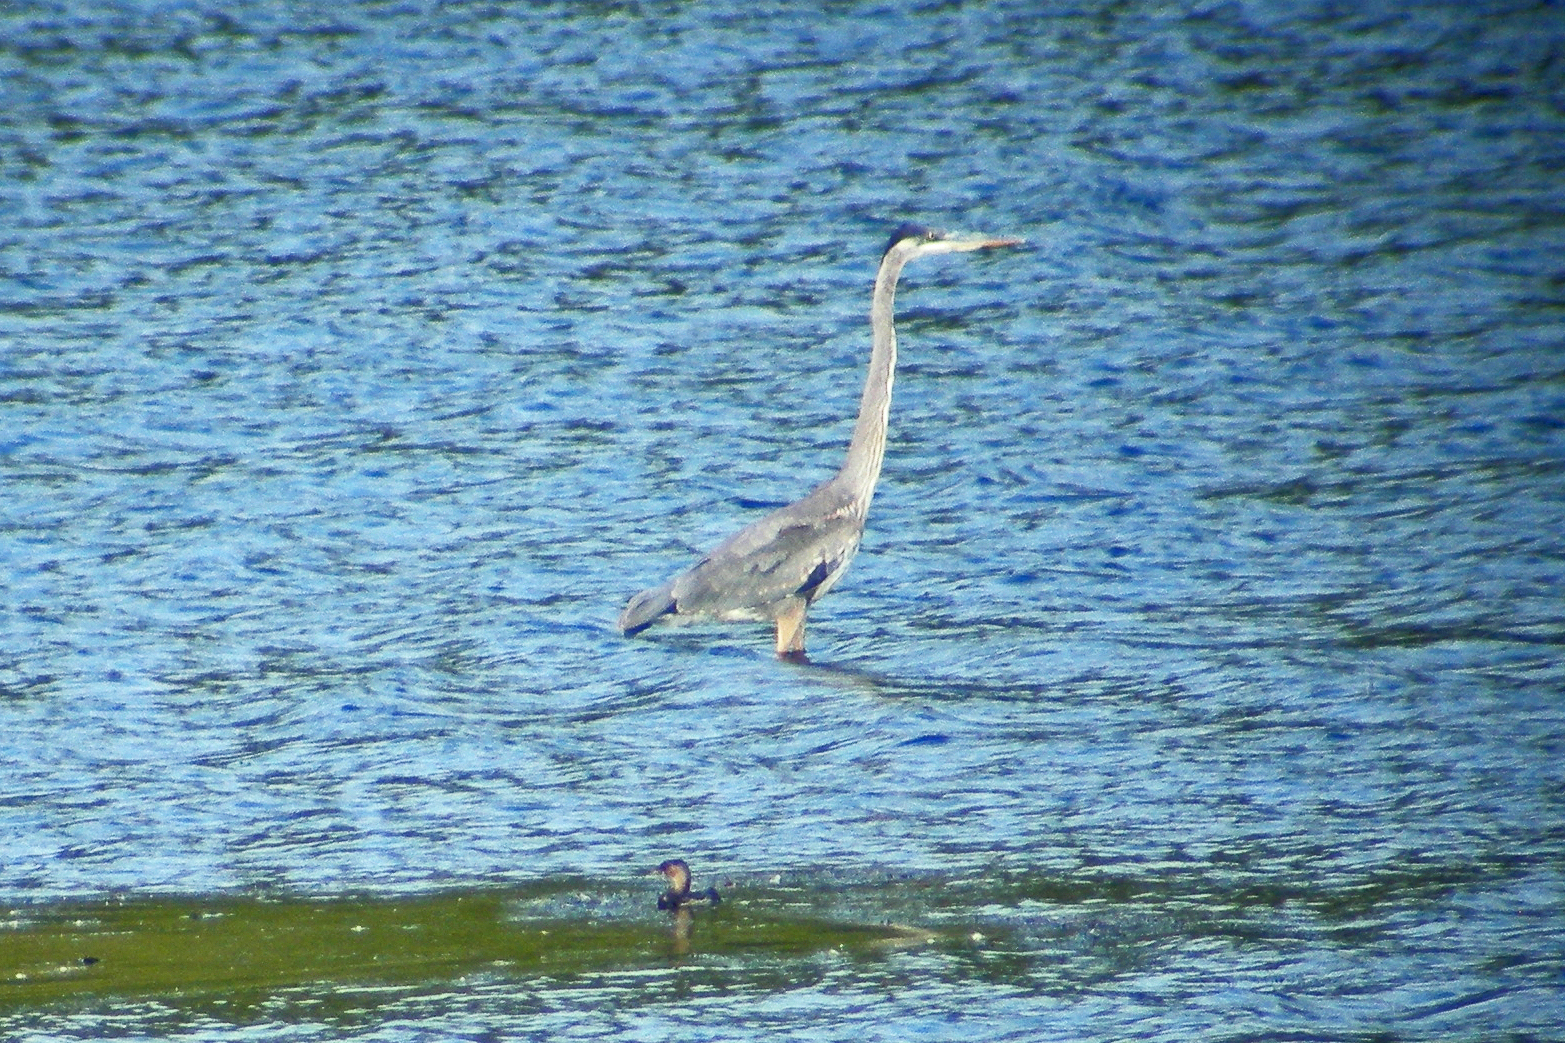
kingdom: Animalia
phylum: Chordata
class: Aves
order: Pelecaniformes
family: Ardeidae
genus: Ardea
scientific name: Ardea herodias
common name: Great blue heron
